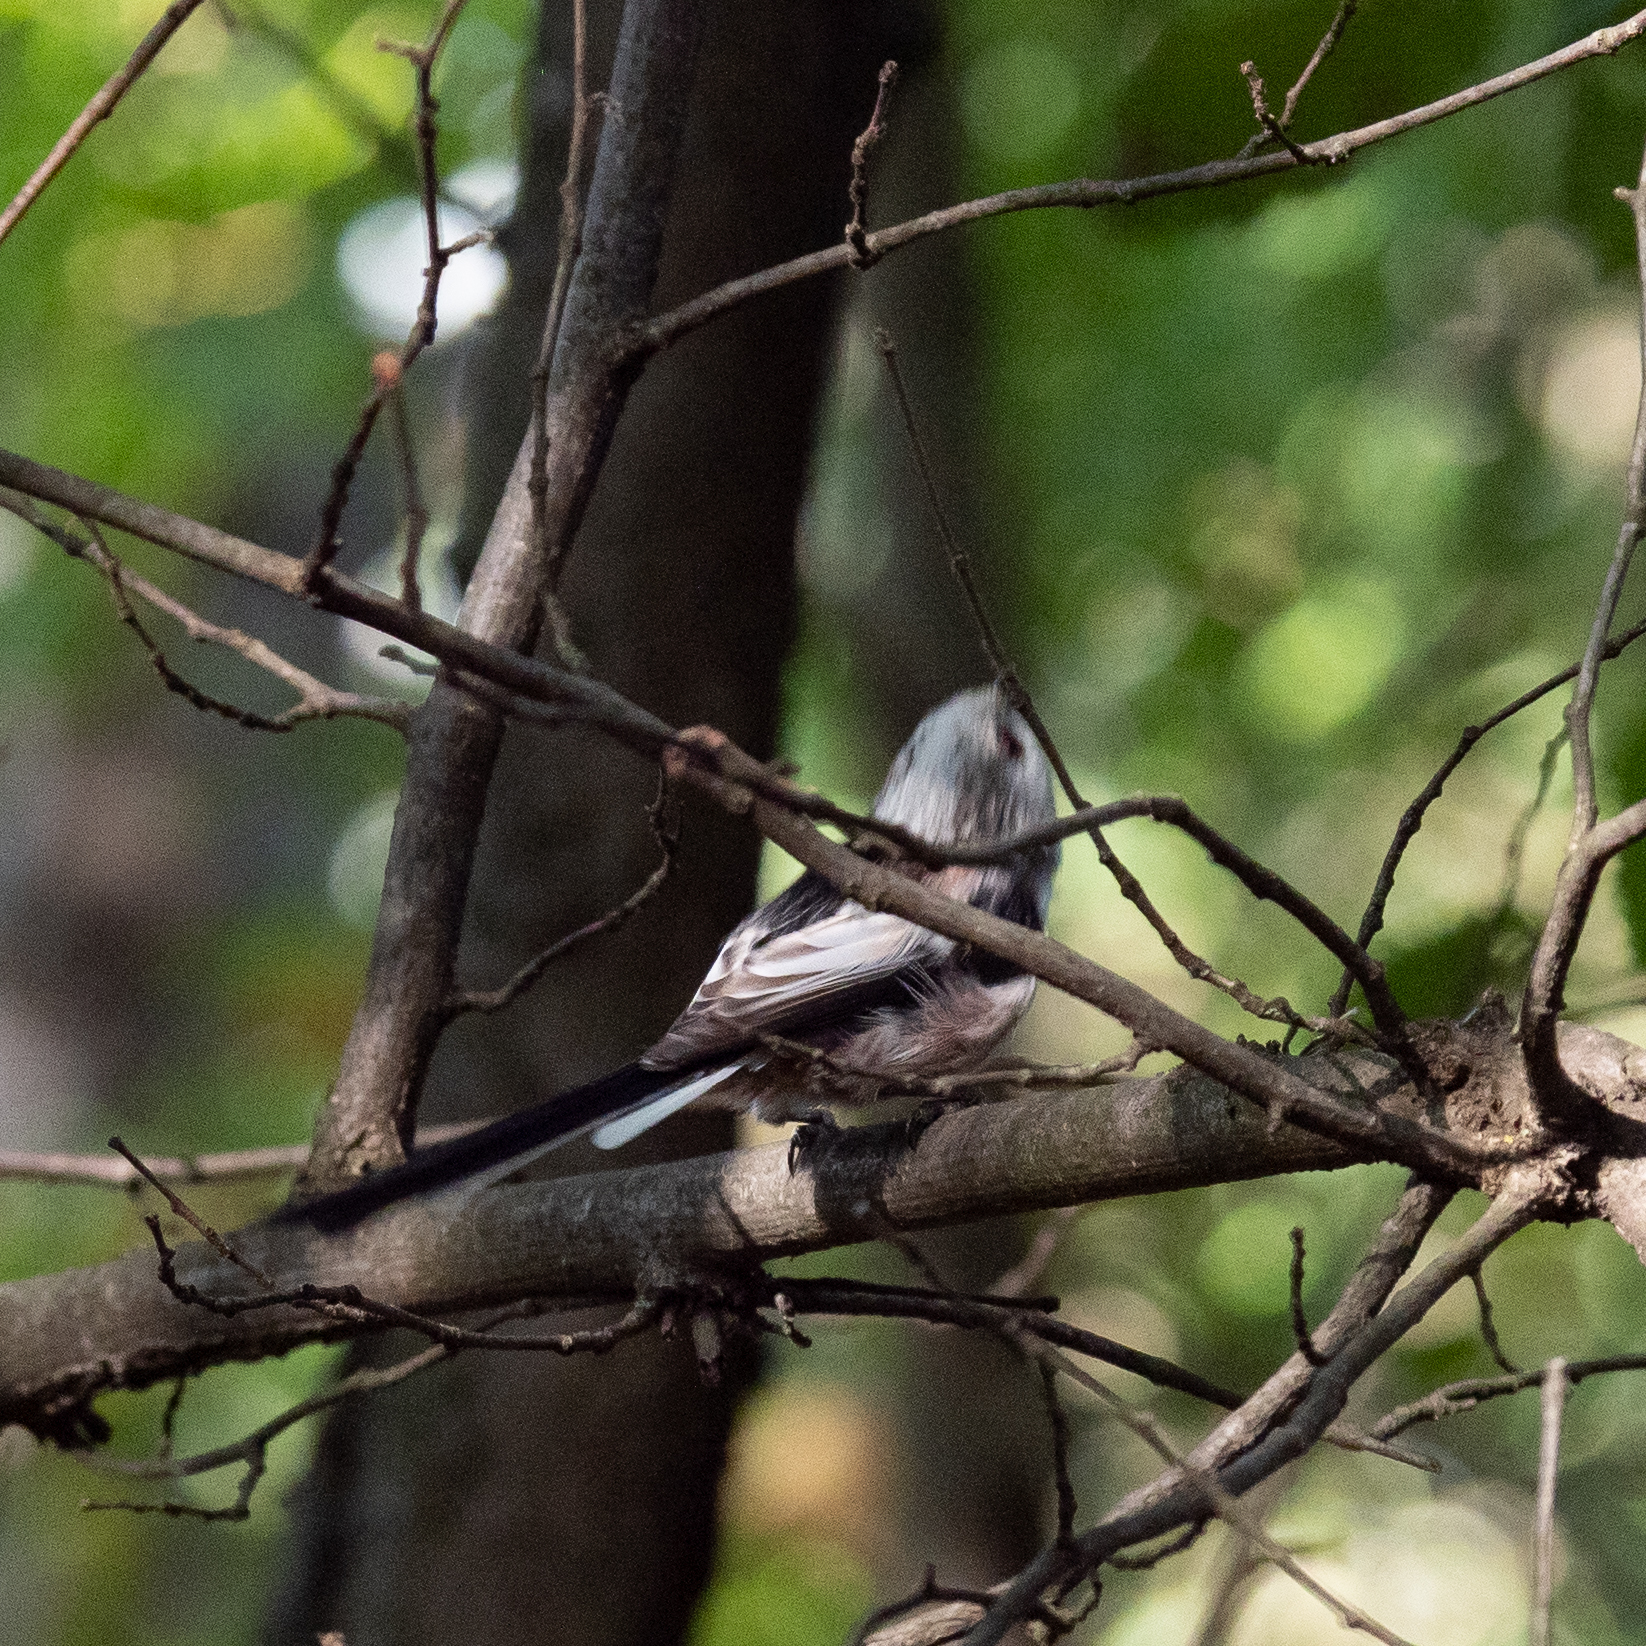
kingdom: Animalia
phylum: Chordata
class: Aves
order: Passeriformes
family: Aegithalidae
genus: Aegithalos
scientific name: Aegithalos caudatus
